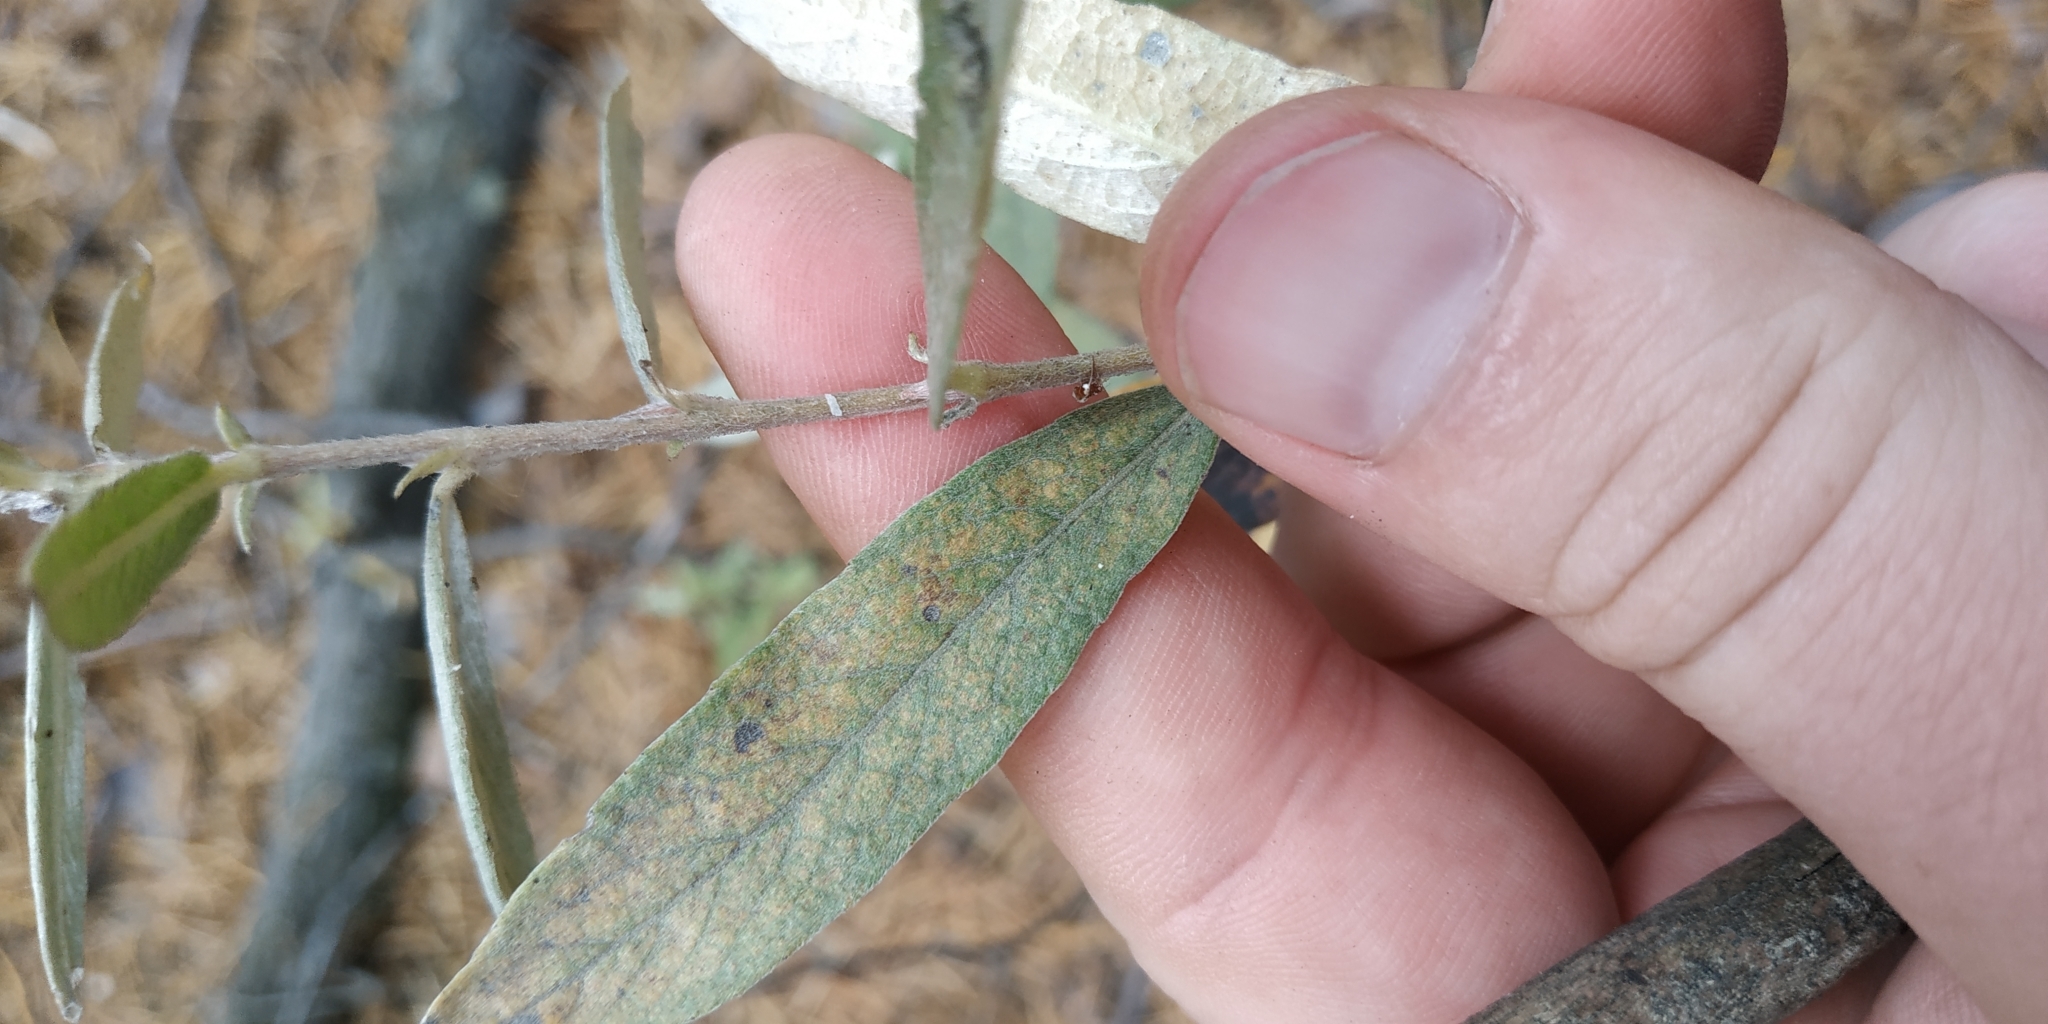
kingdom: Plantae
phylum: Tracheophyta
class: Magnoliopsida
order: Malpighiales
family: Salicaceae
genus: Salix
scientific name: Salix rosmarinifolia
